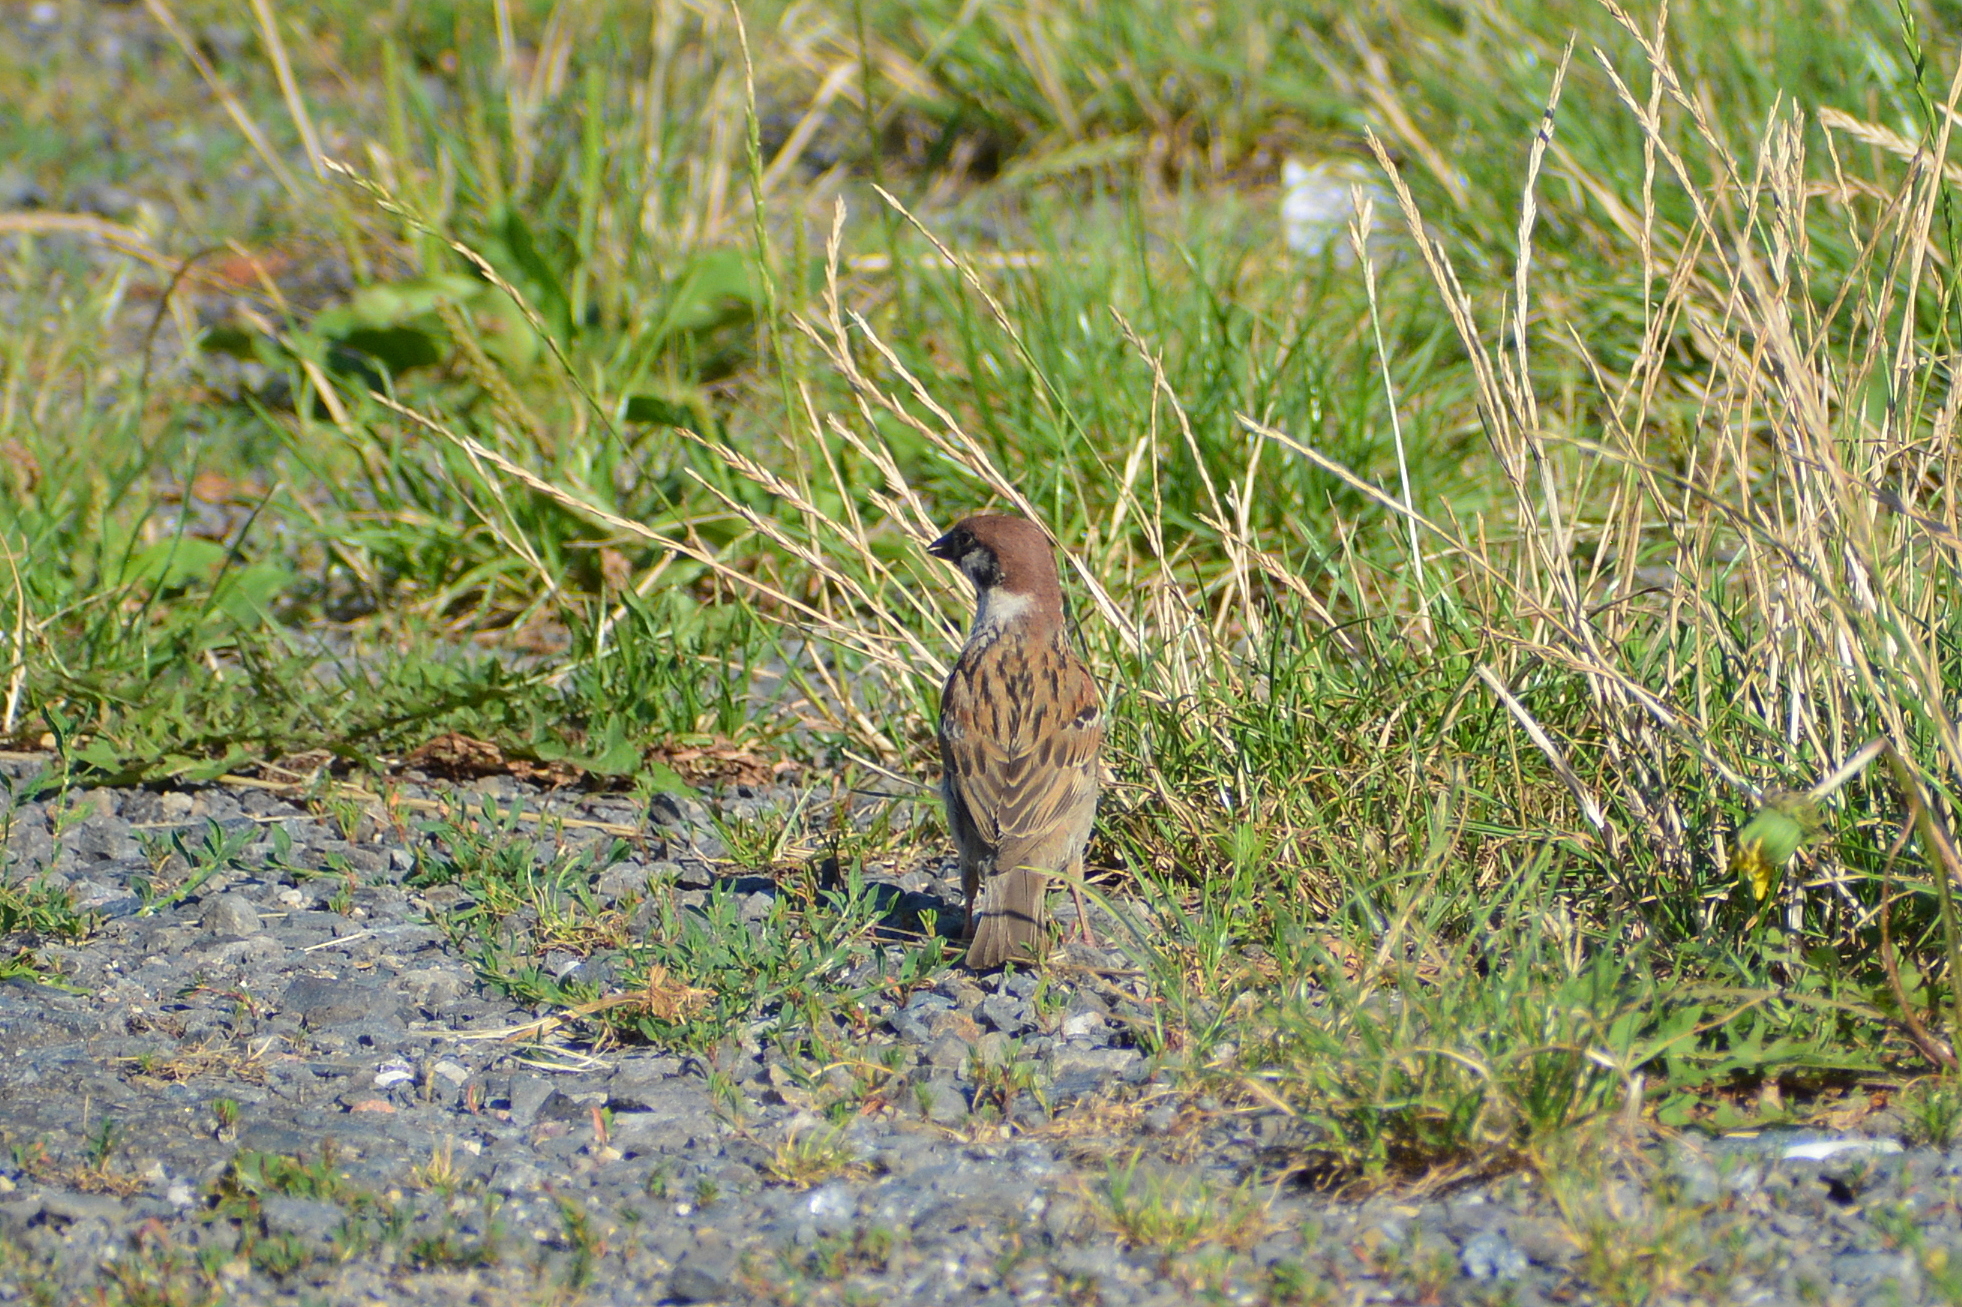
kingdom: Animalia
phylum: Chordata
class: Aves
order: Passeriformes
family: Passeridae
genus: Passer
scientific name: Passer montanus
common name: Eurasian tree sparrow
